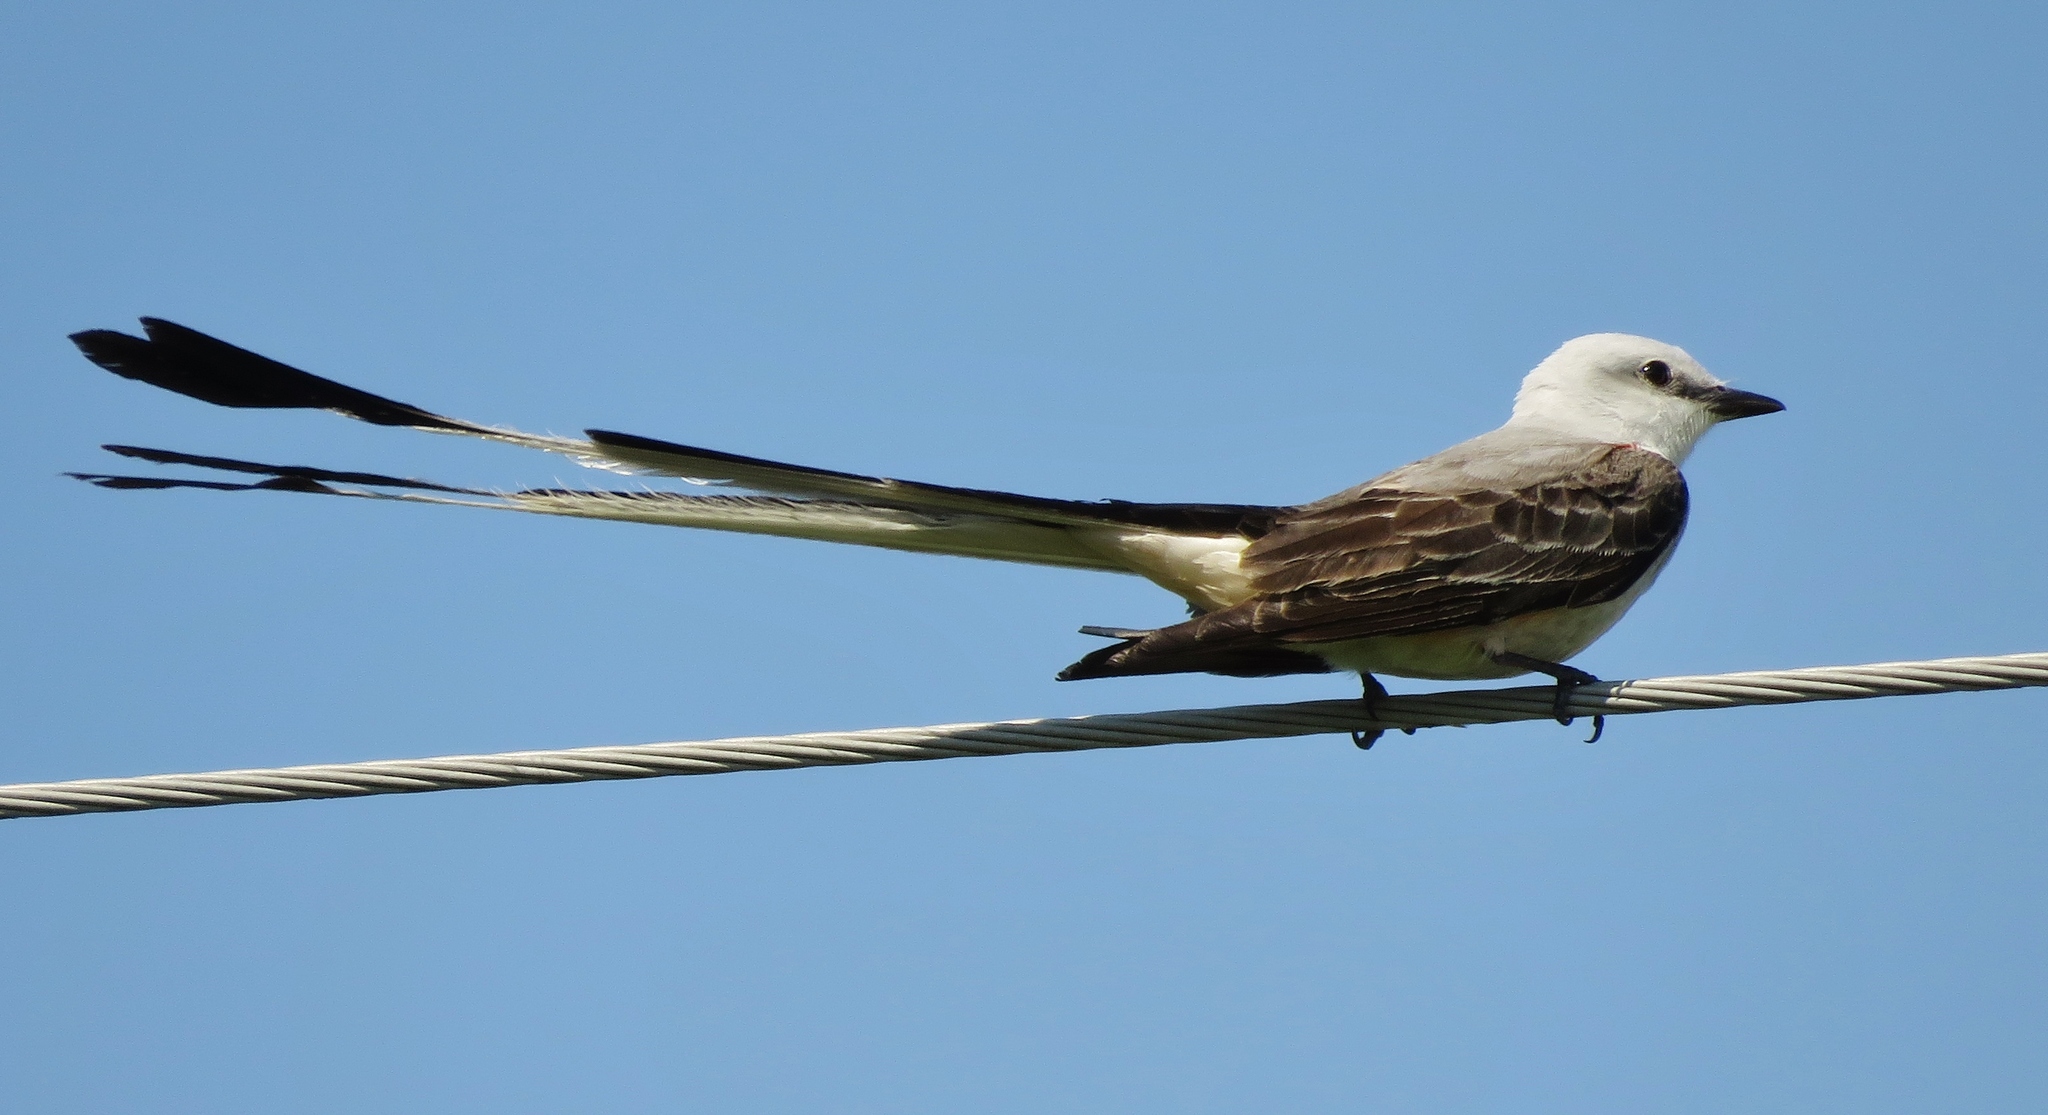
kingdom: Animalia
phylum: Chordata
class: Aves
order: Passeriformes
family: Tyrannidae
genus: Tyrannus
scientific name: Tyrannus forficatus
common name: Scissor-tailed flycatcher
